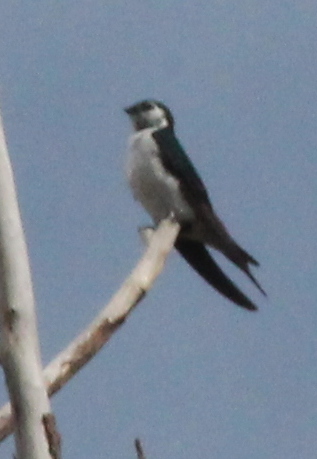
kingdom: Animalia
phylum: Chordata
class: Aves
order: Passeriformes
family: Hirundinidae
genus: Tachycineta
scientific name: Tachycineta thalassina
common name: Violet-green swallow
